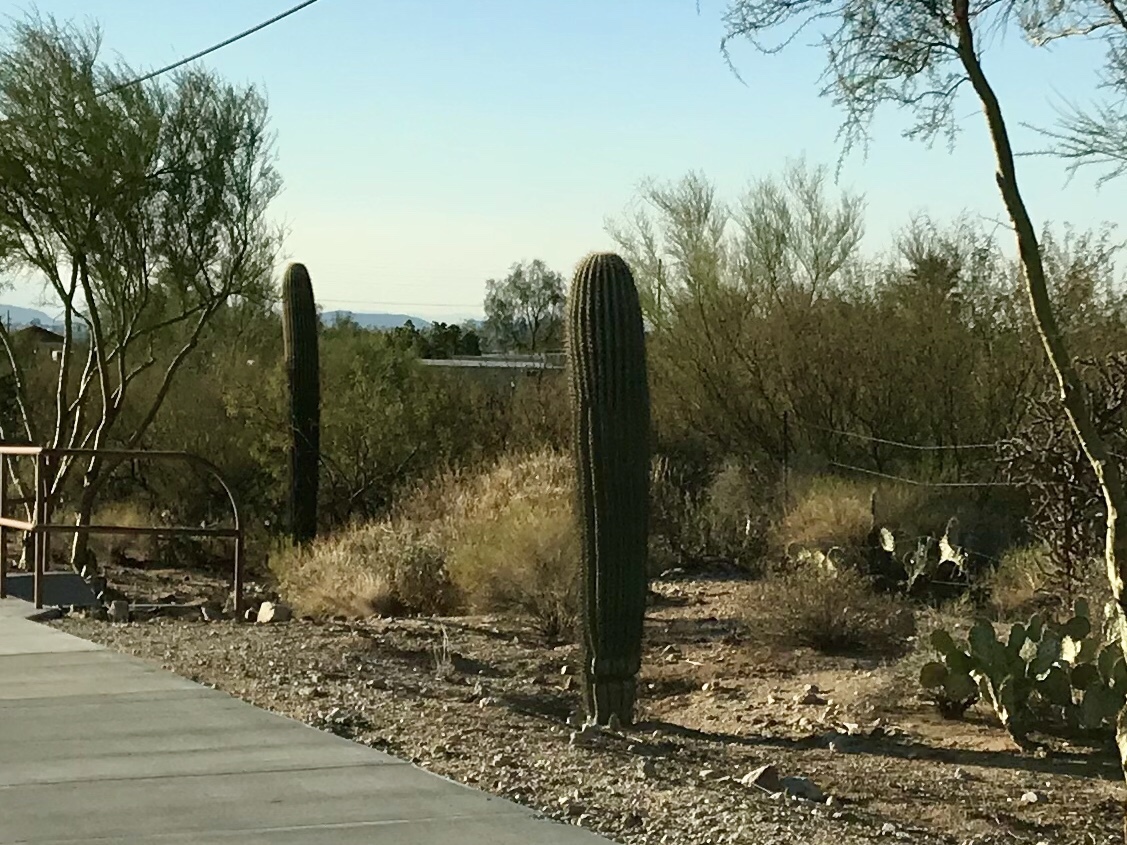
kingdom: Plantae
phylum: Tracheophyta
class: Magnoliopsida
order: Caryophyllales
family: Cactaceae
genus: Carnegiea
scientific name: Carnegiea gigantea
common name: Saguaro
